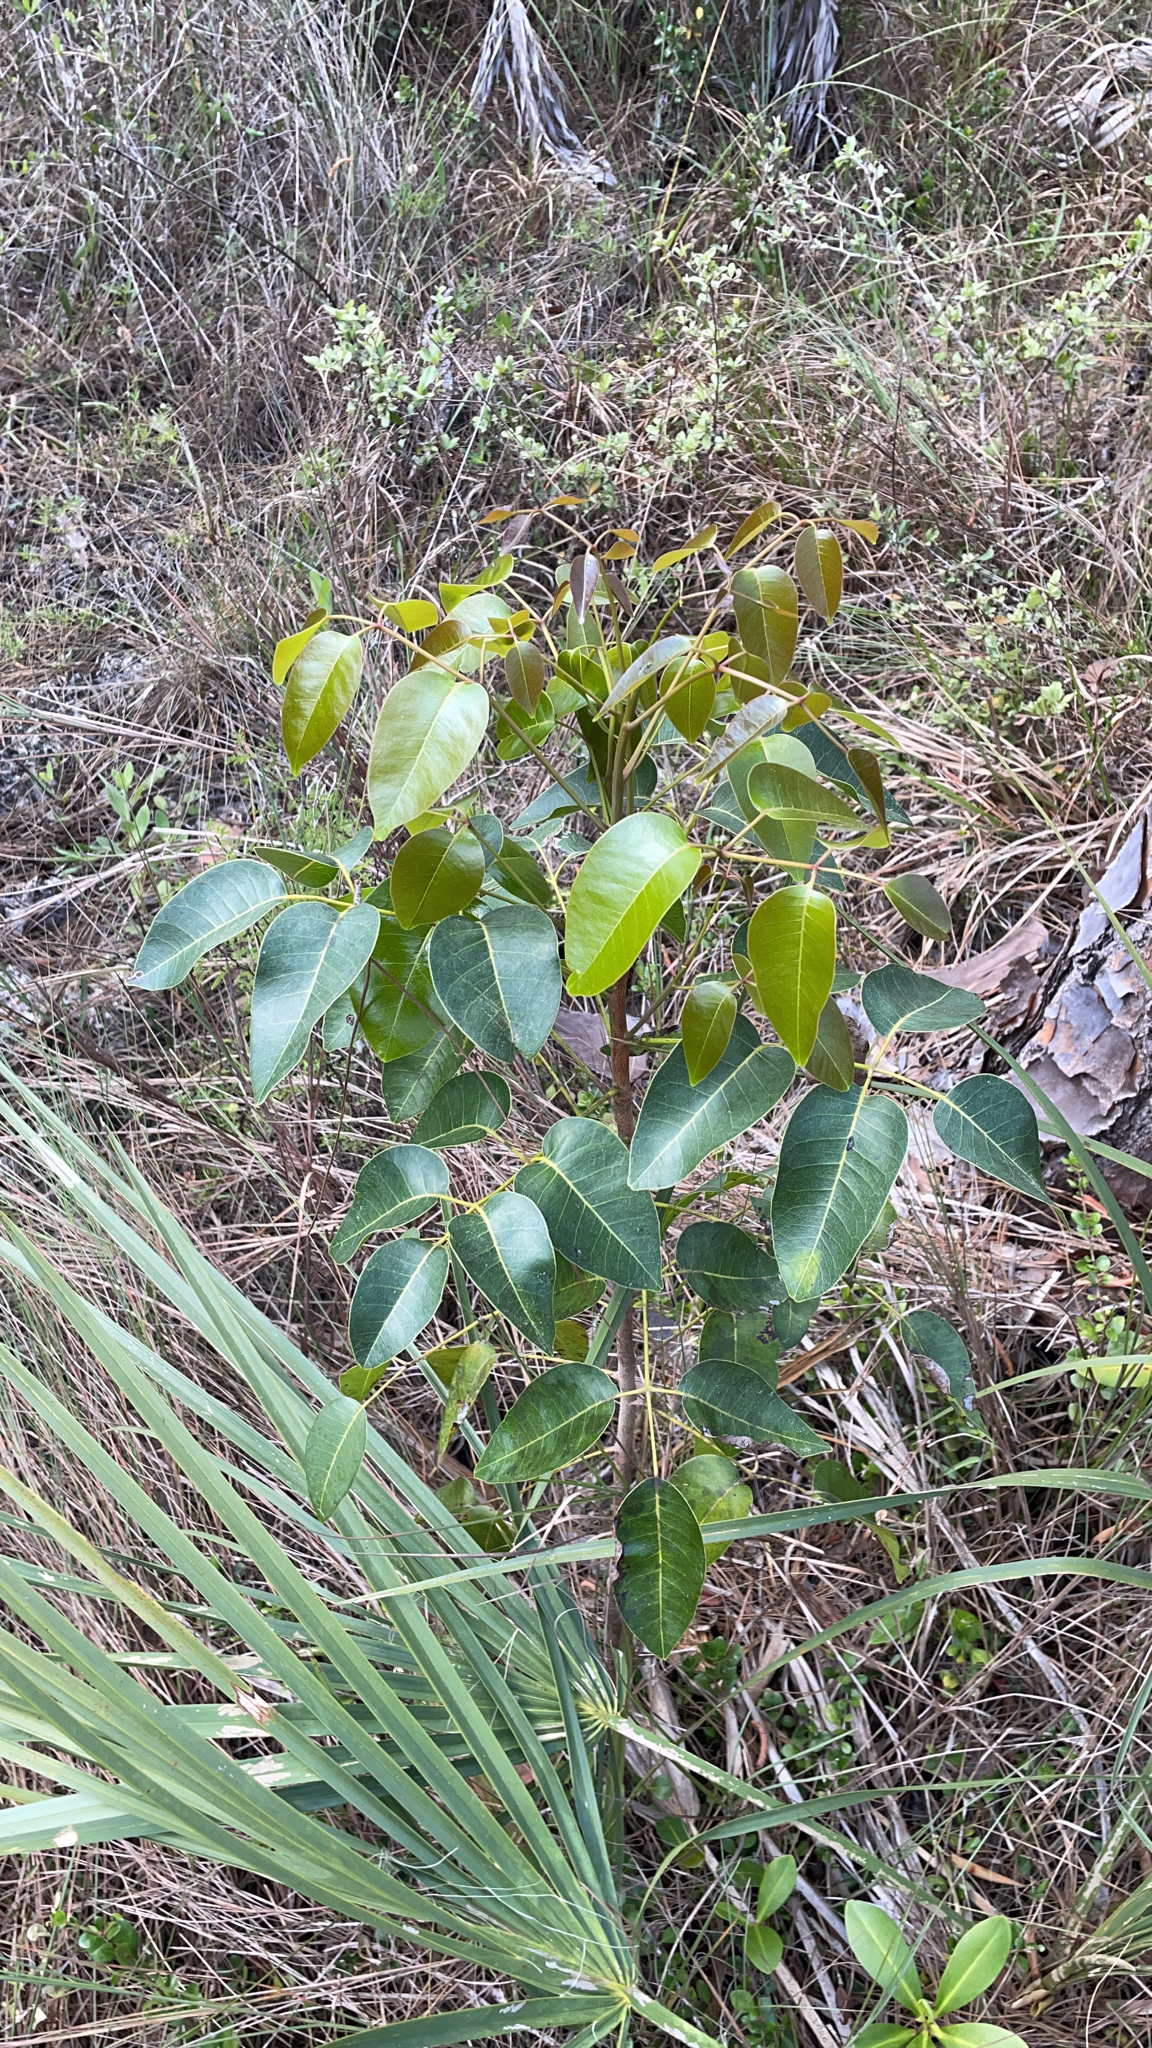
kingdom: Plantae
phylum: Tracheophyta
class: Magnoliopsida
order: Sapindales
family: Anacardiaceae
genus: Metopium
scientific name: Metopium toxiferum
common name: Florida poisontree
